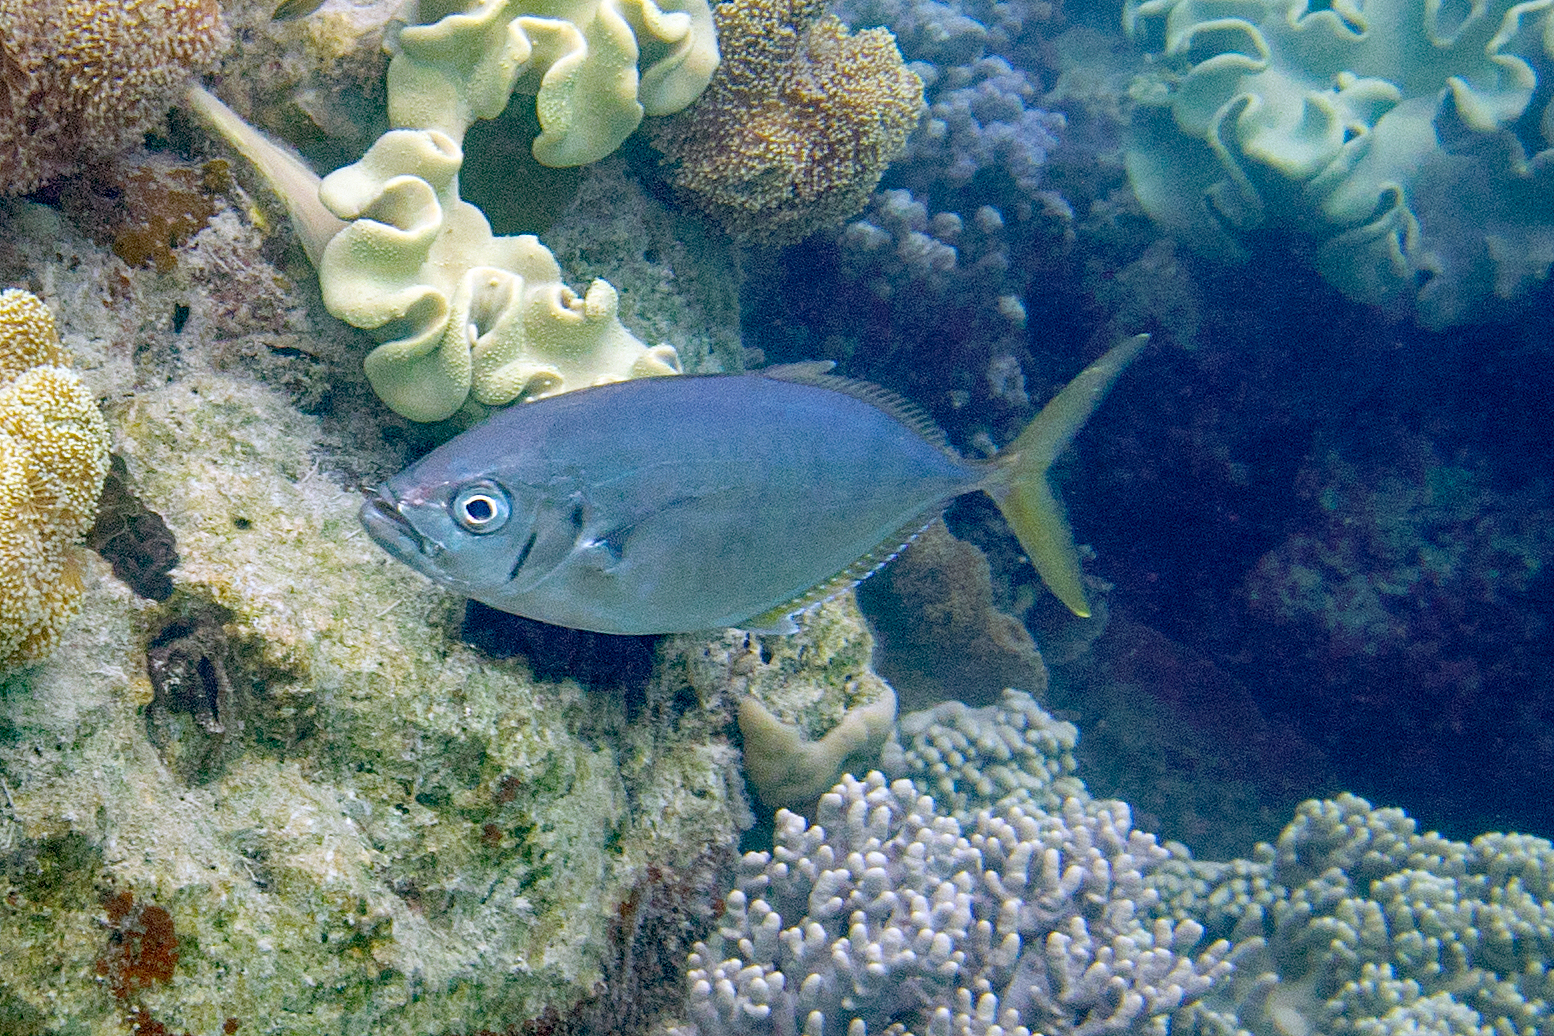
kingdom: Animalia
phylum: Chordata
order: Perciformes
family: Carangidae
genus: Craterognathus
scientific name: Craterognathus plagiotaenia
